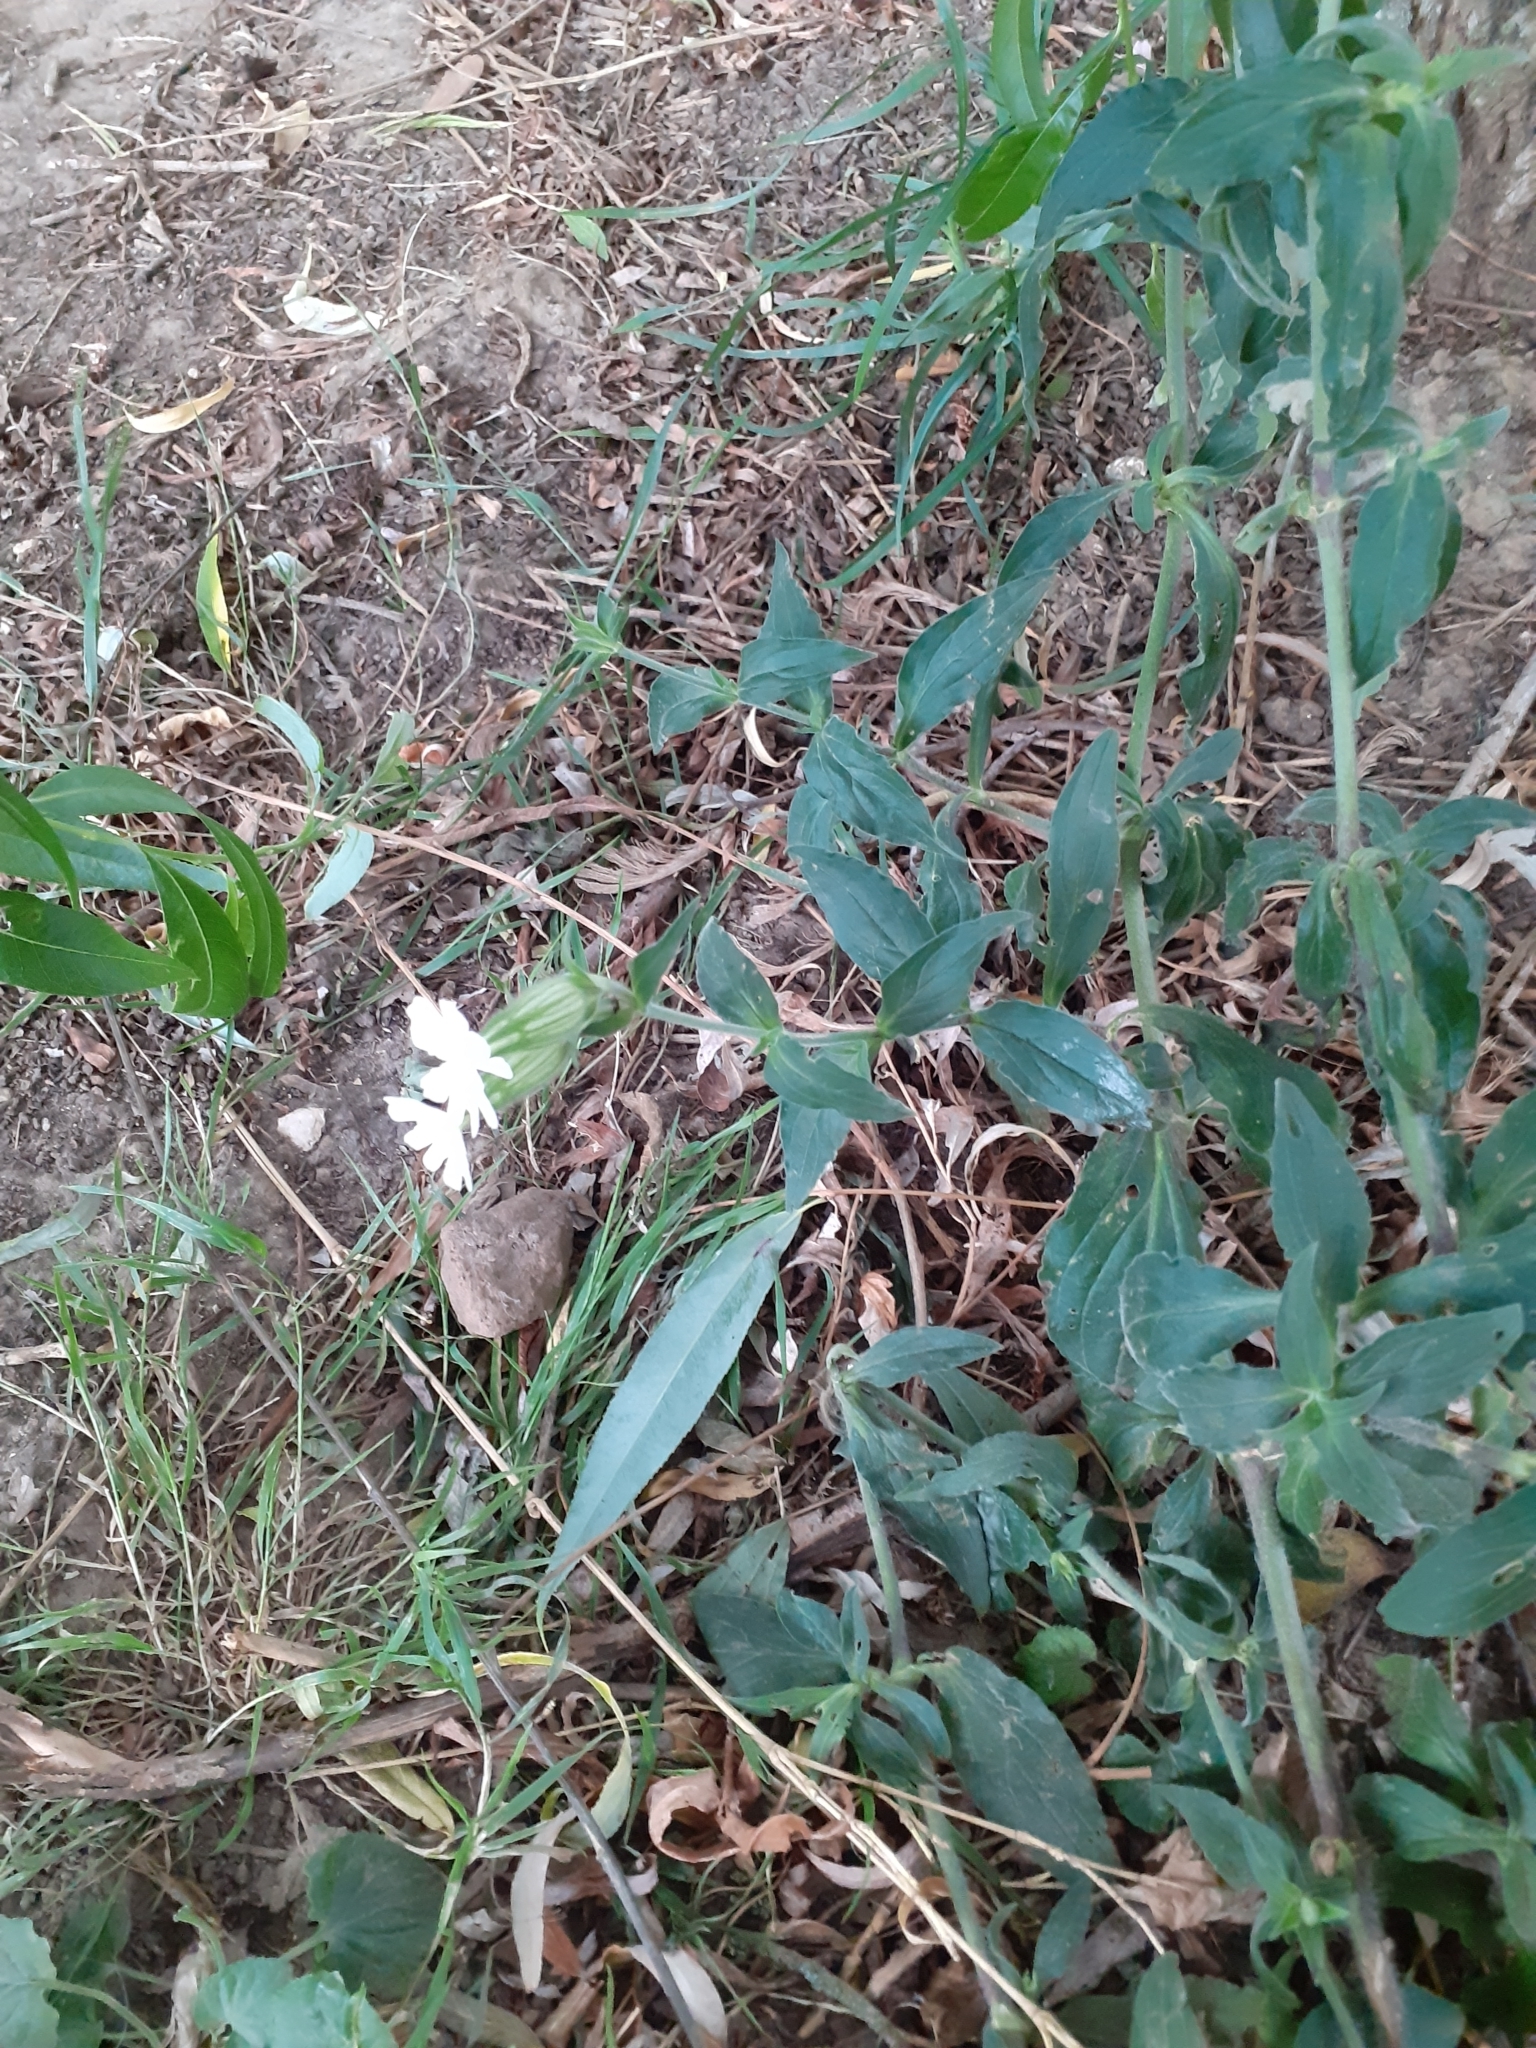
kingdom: Plantae
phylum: Tracheophyta
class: Magnoliopsida
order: Caryophyllales
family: Caryophyllaceae
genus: Silene
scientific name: Silene latifolia
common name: White campion
